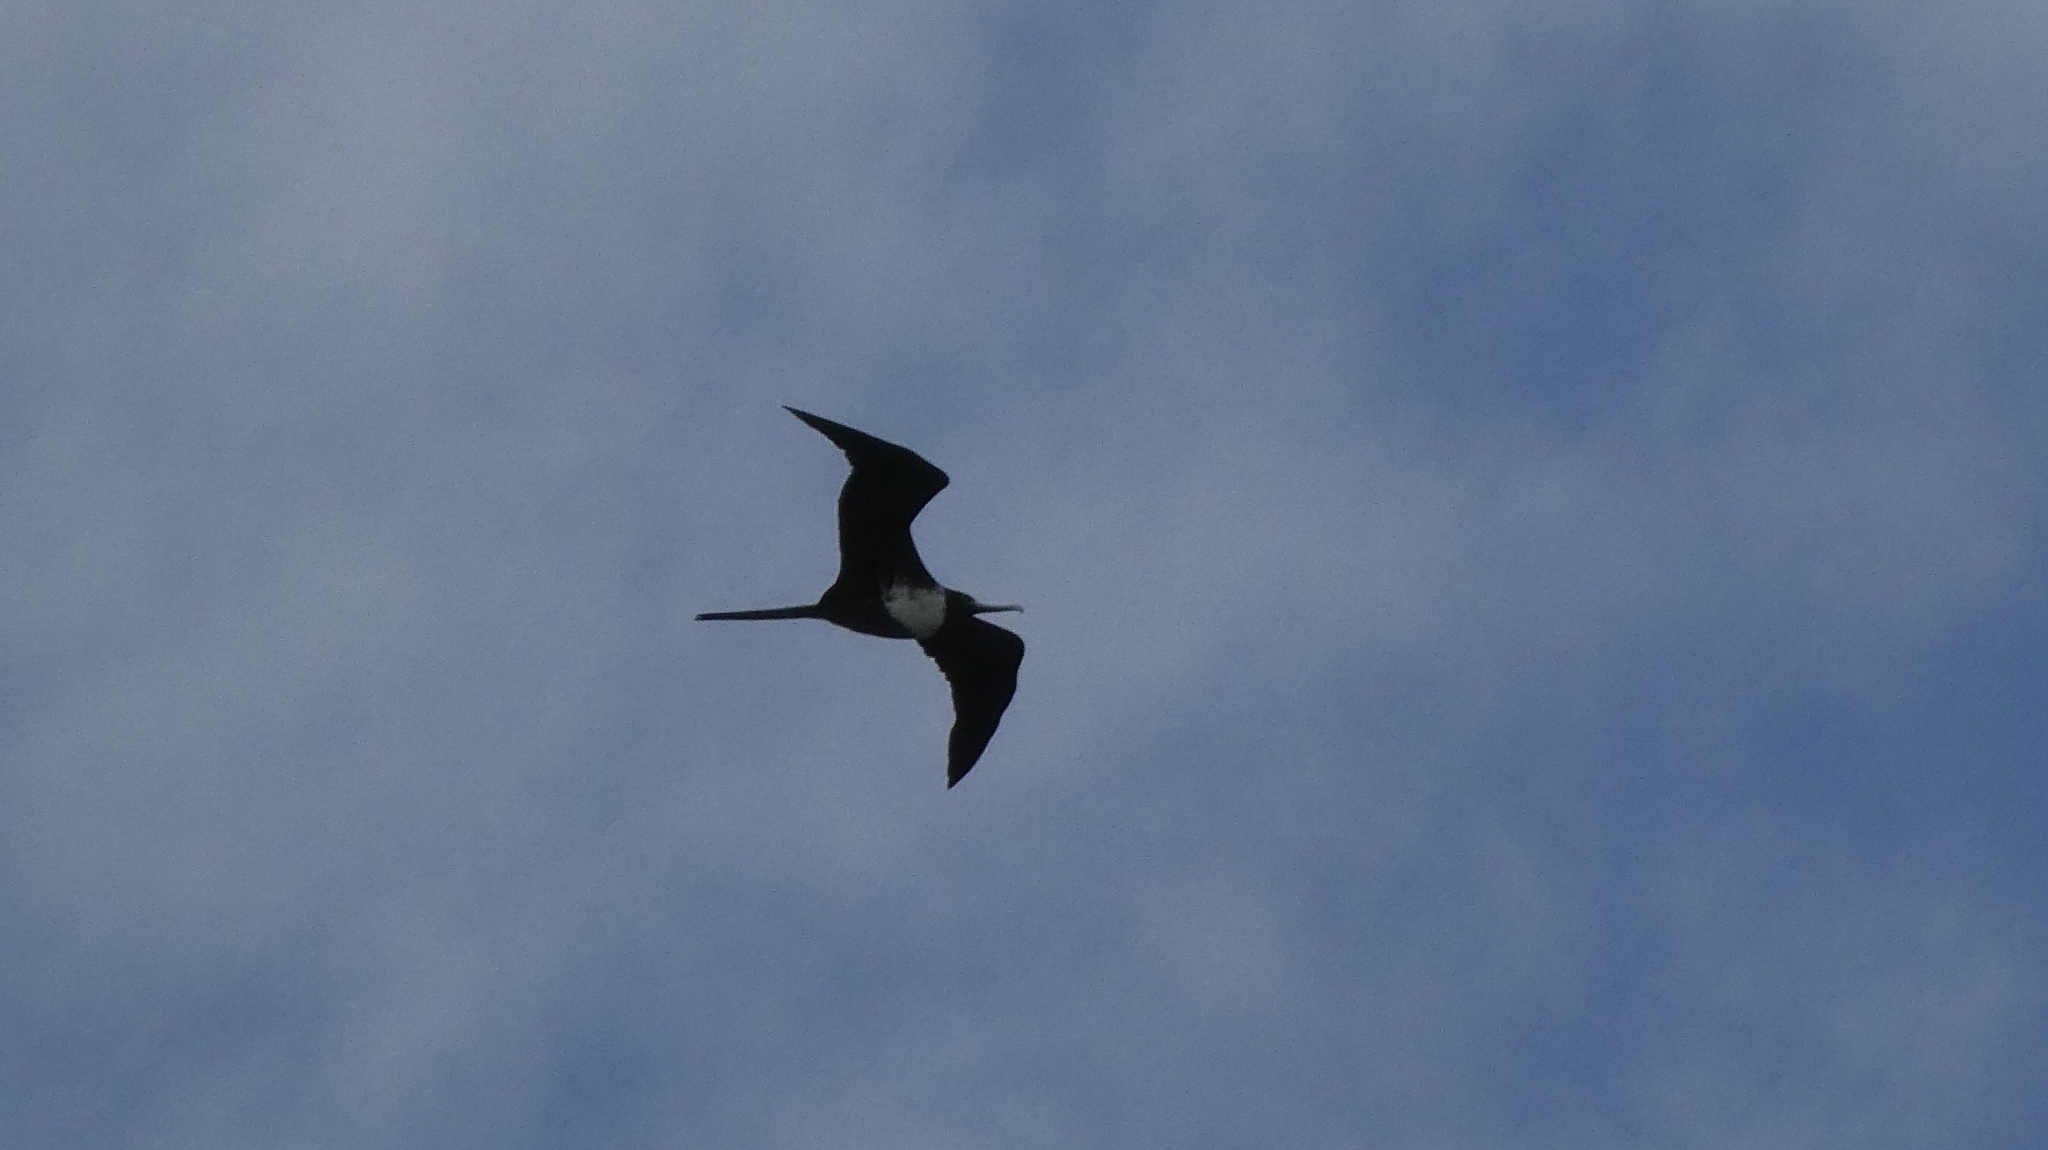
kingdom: Animalia
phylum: Chordata
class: Aves
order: Suliformes
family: Fregatidae
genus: Fregata
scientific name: Fregata magnificens
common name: Magnificent frigatebird
